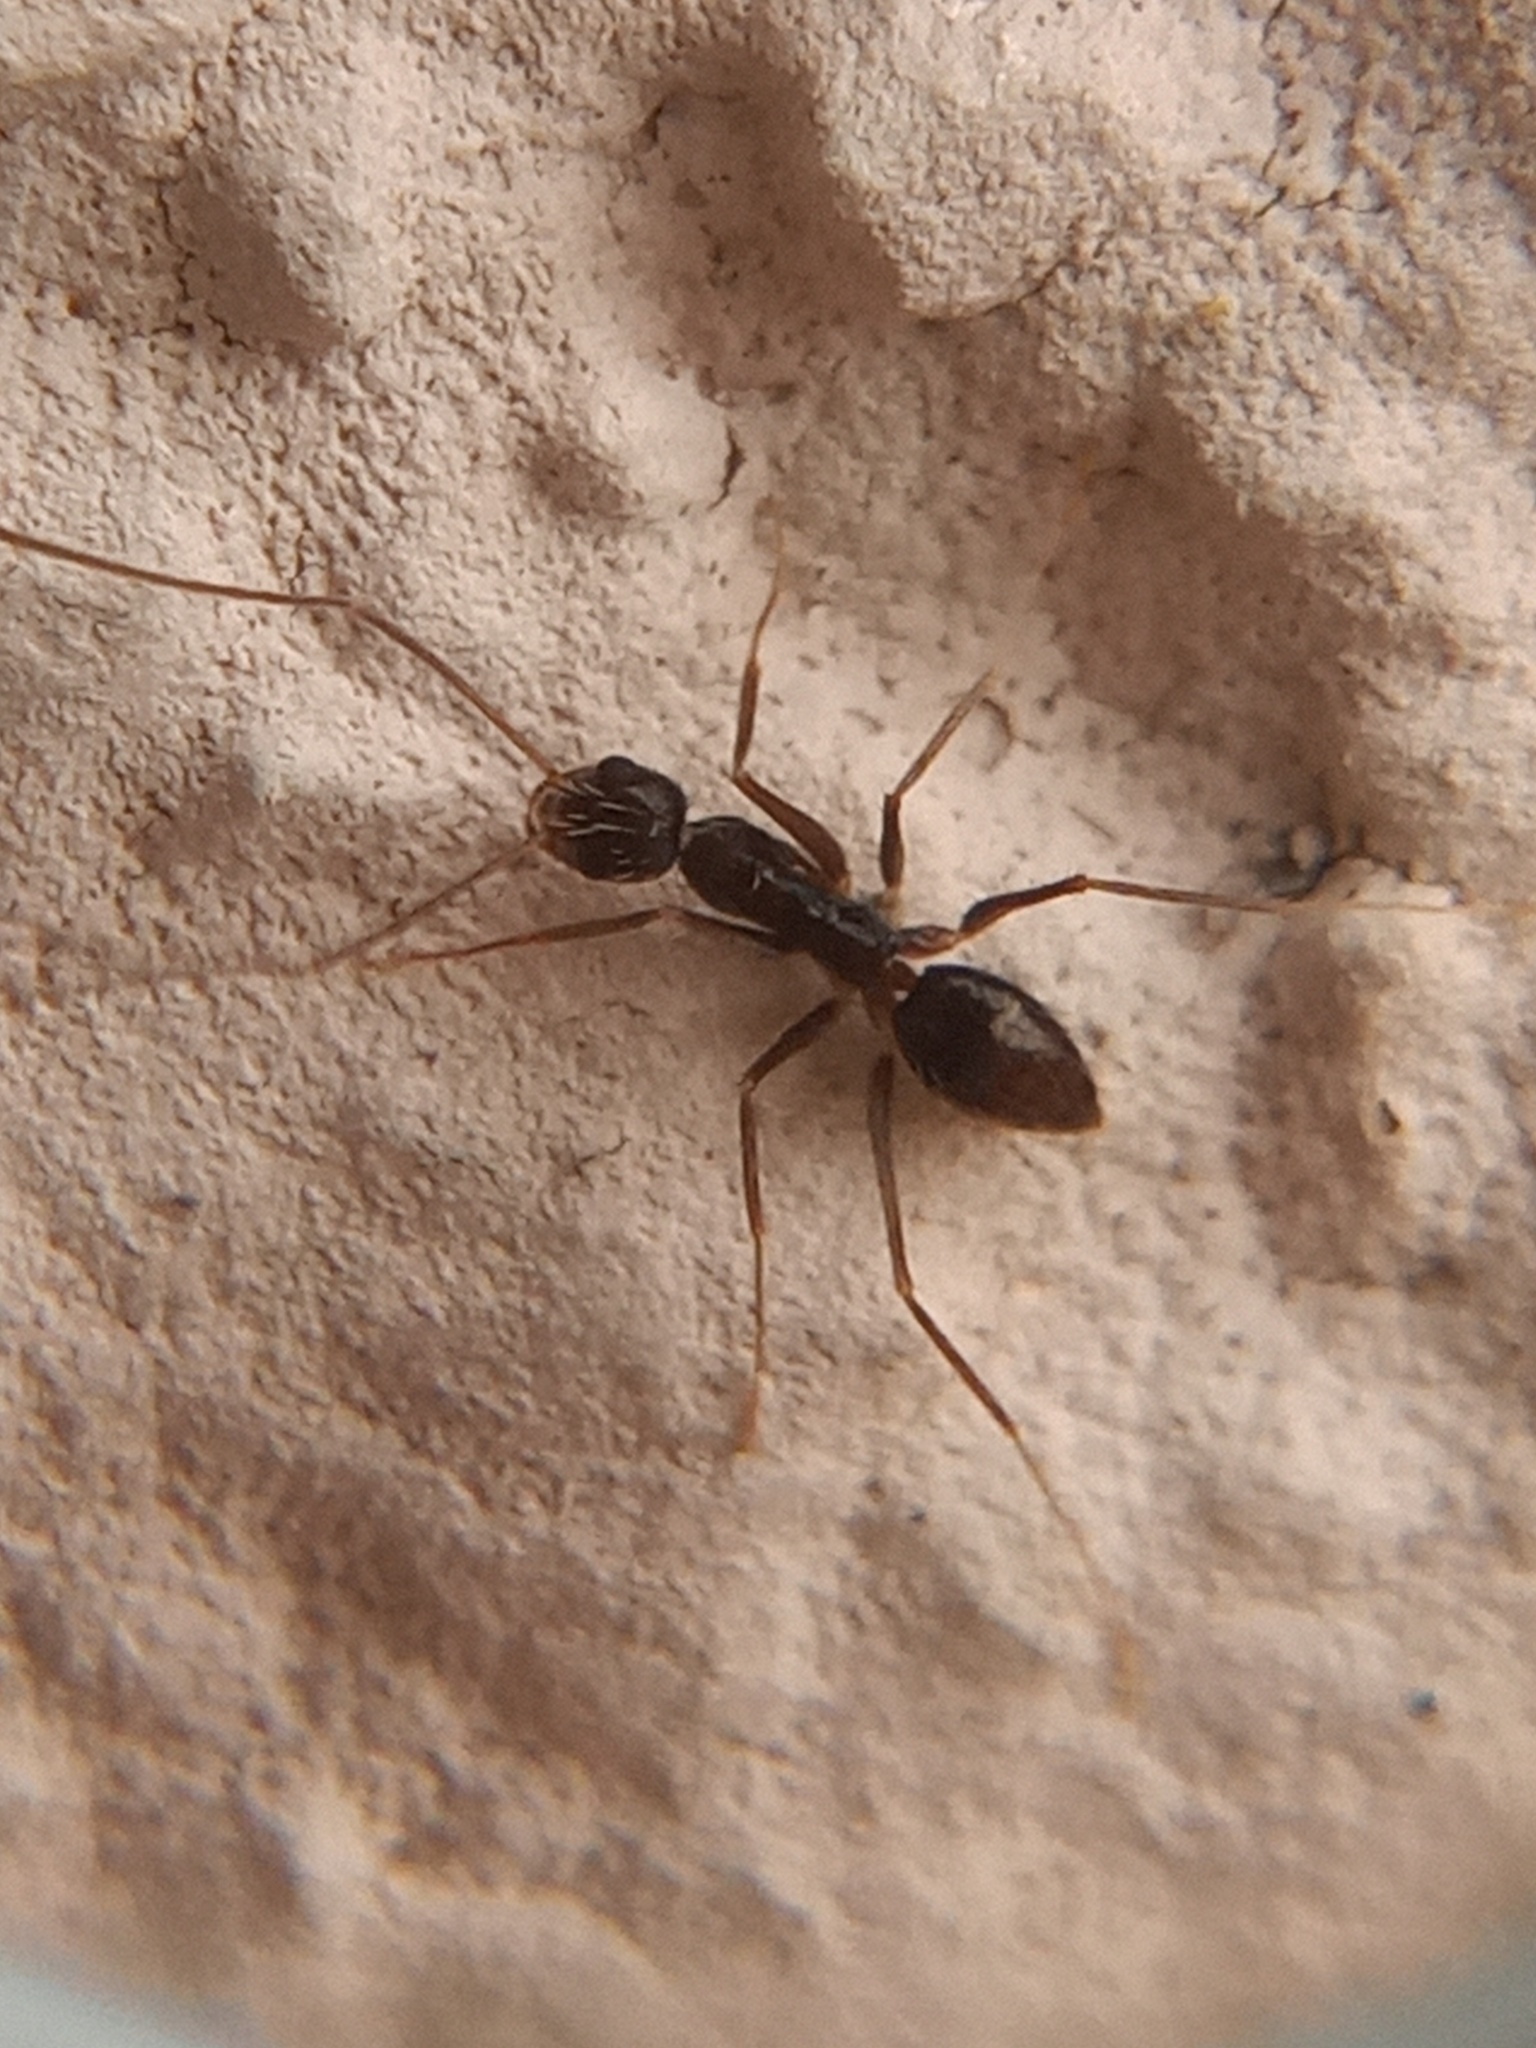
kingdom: Animalia
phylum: Arthropoda
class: Insecta
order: Hymenoptera
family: Formicidae
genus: Paratrechina
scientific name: Paratrechina longicornis
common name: Longhorned crazy ant
